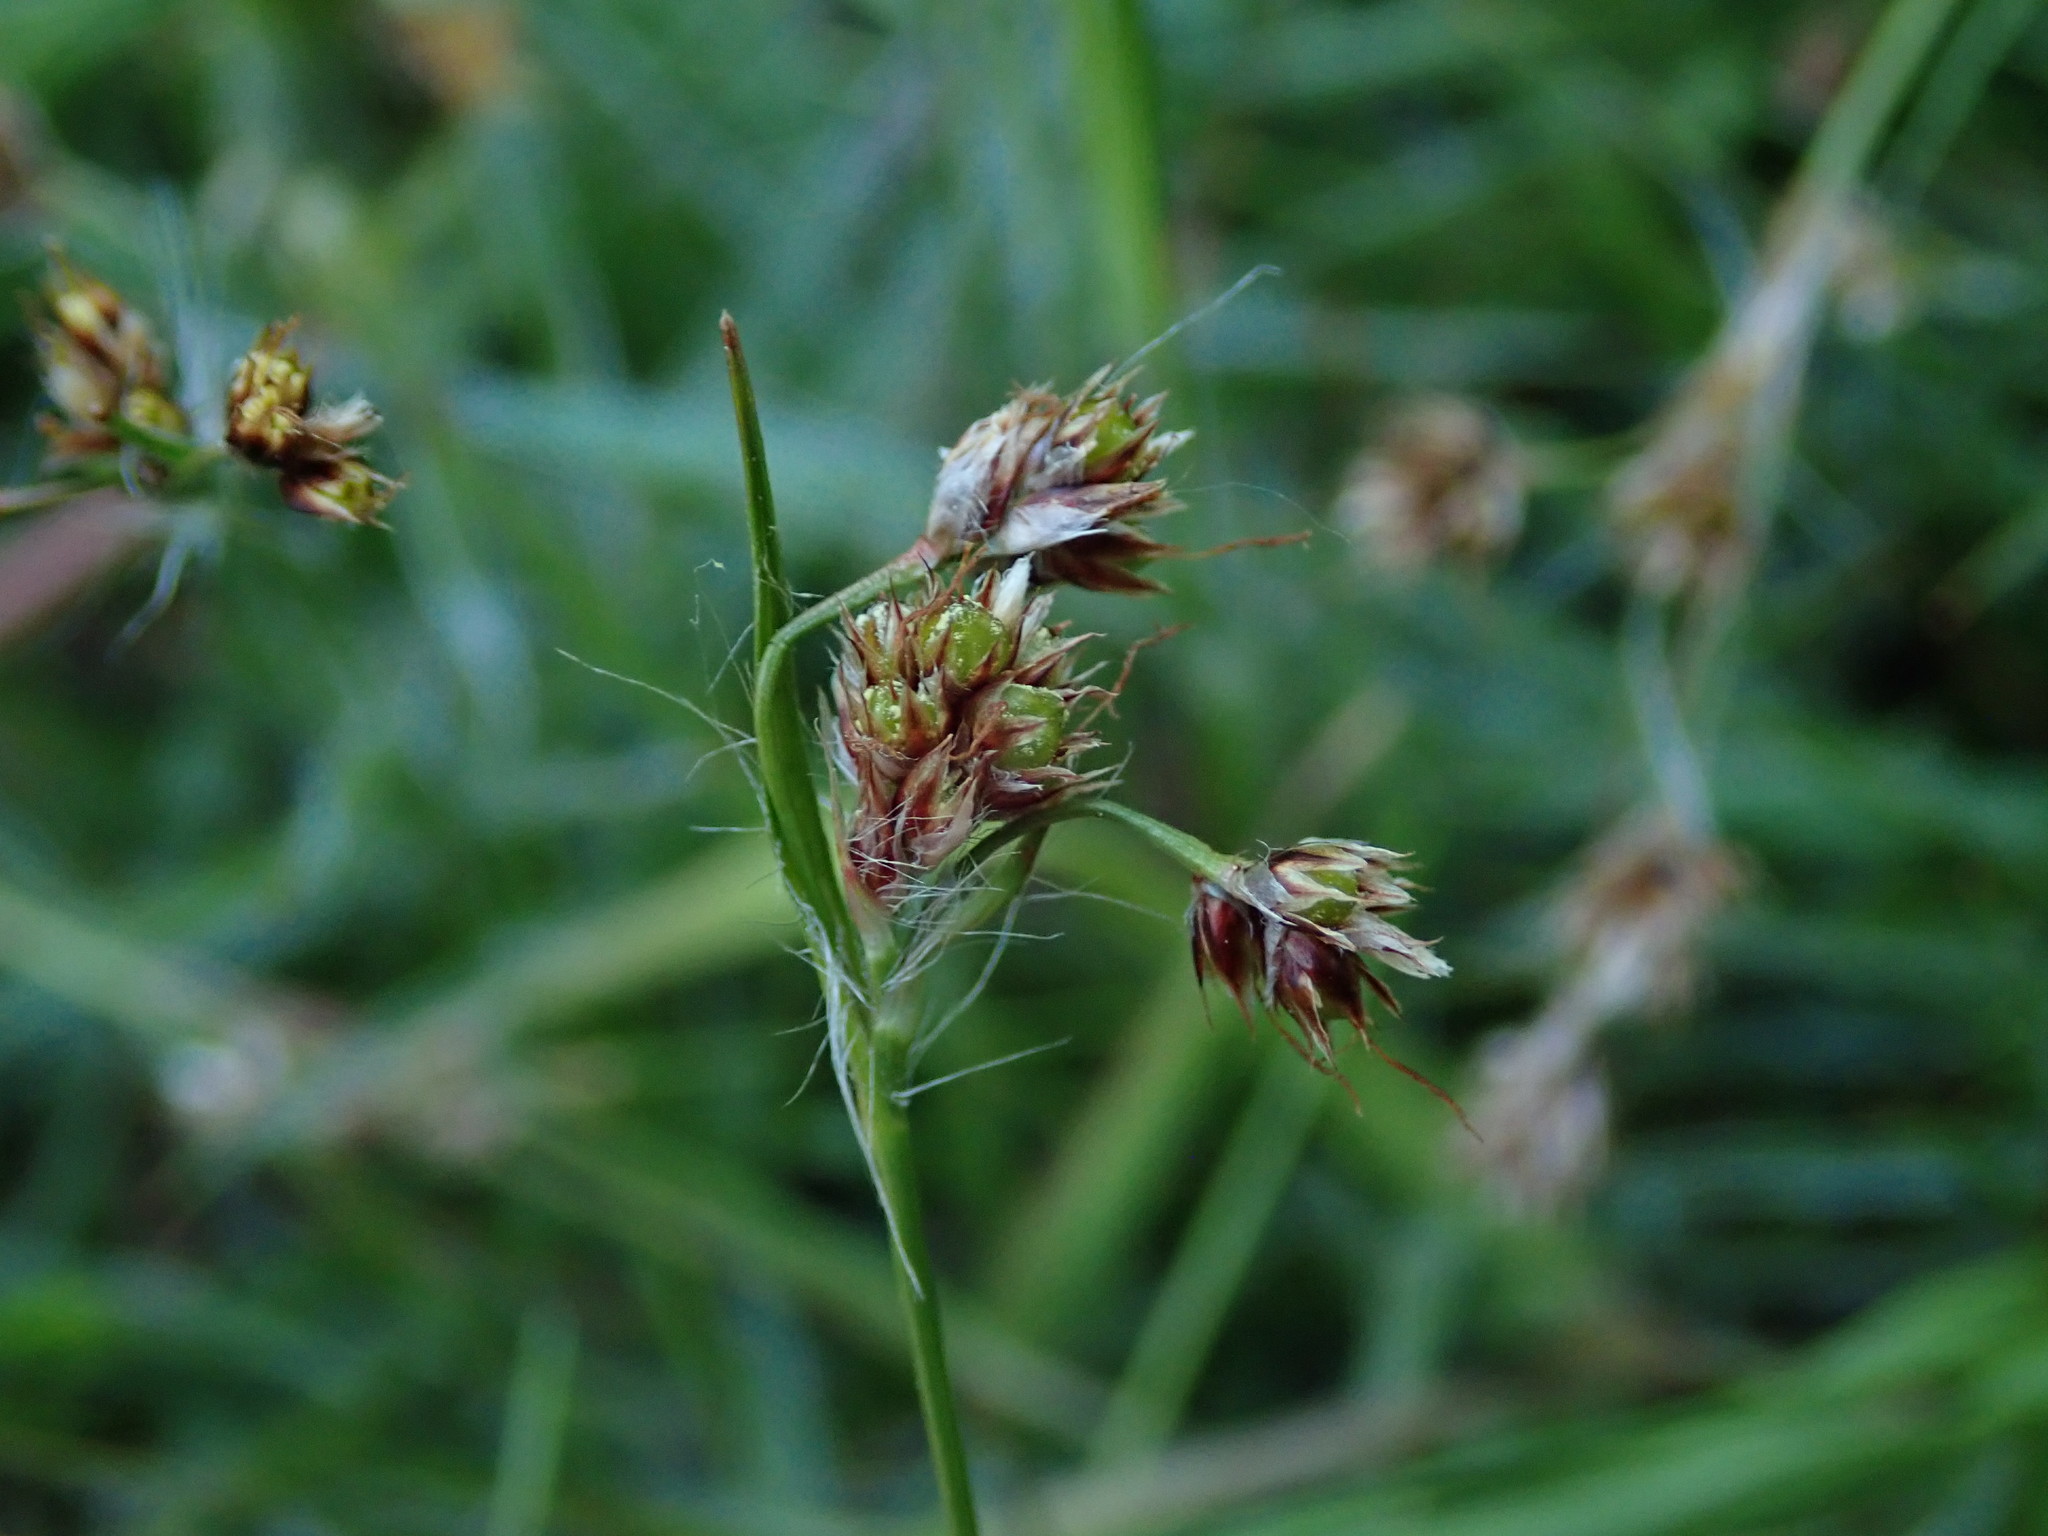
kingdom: Plantae
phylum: Tracheophyta
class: Liliopsida
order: Poales
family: Juncaceae
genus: Luzula
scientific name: Luzula campestris
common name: Field wood-rush
